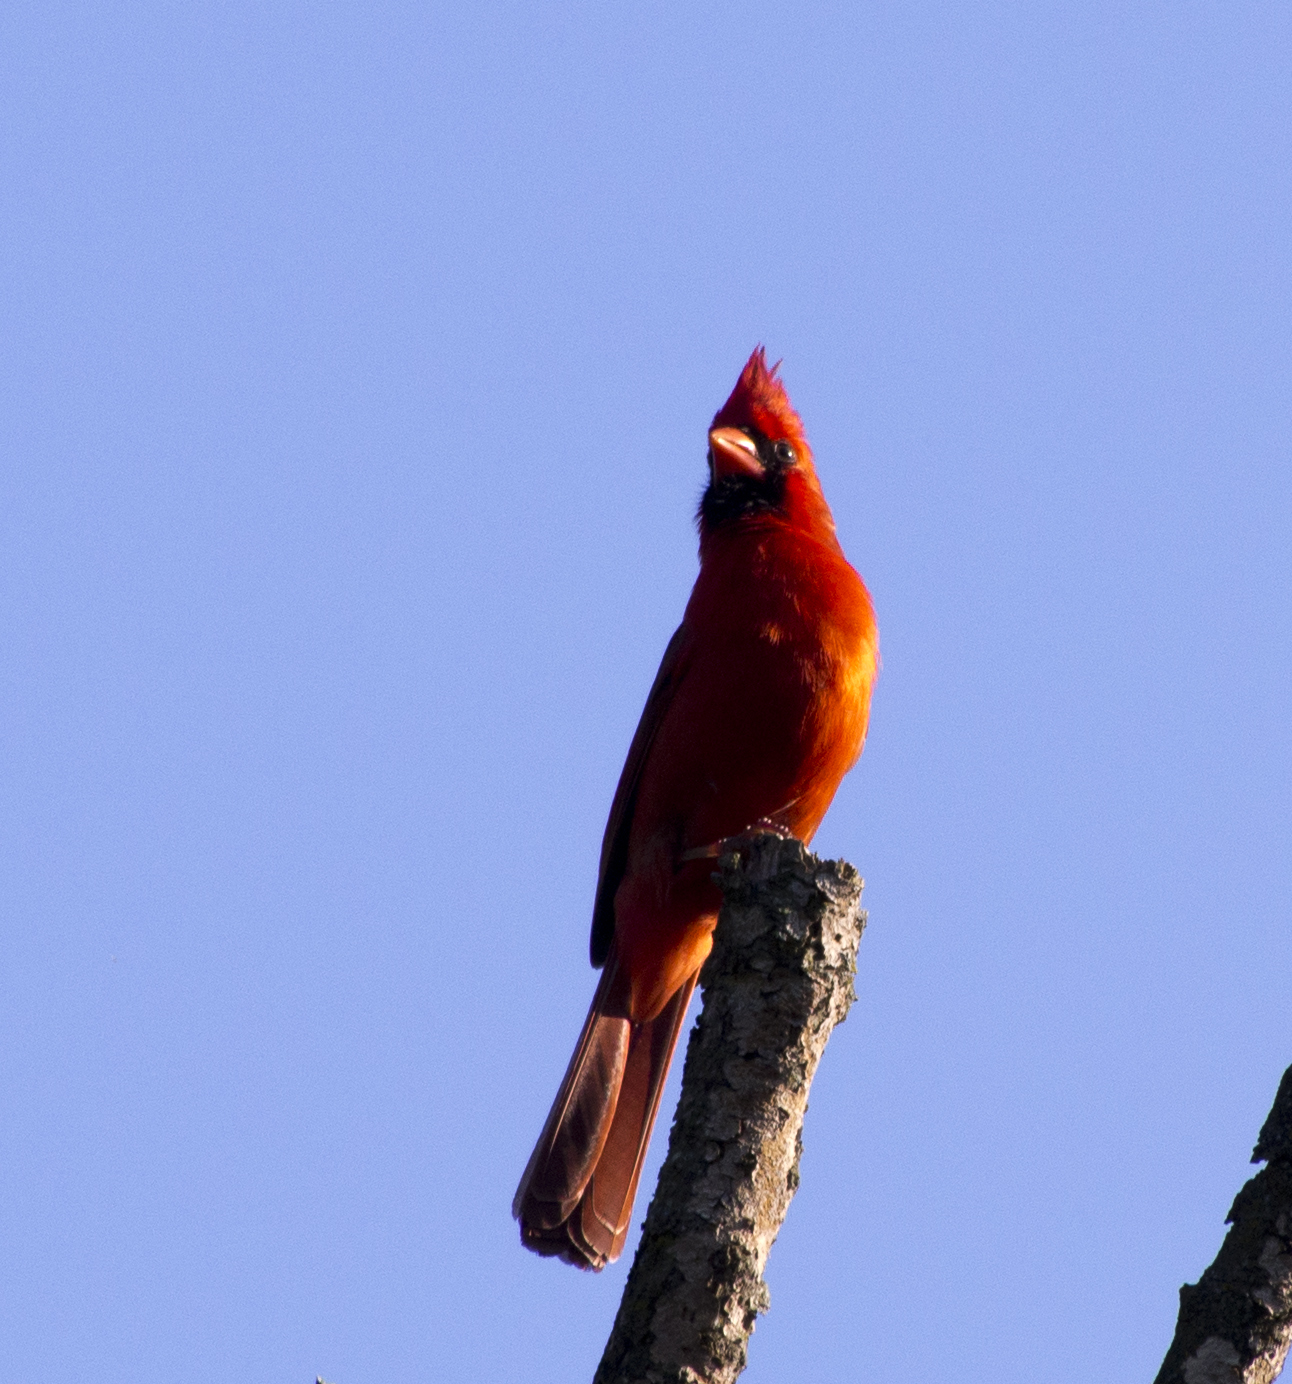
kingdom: Animalia
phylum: Chordata
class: Aves
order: Passeriformes
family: Cardinalidae
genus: Cardinalis
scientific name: Cardinalis cardinalis
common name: Northern cardinal
